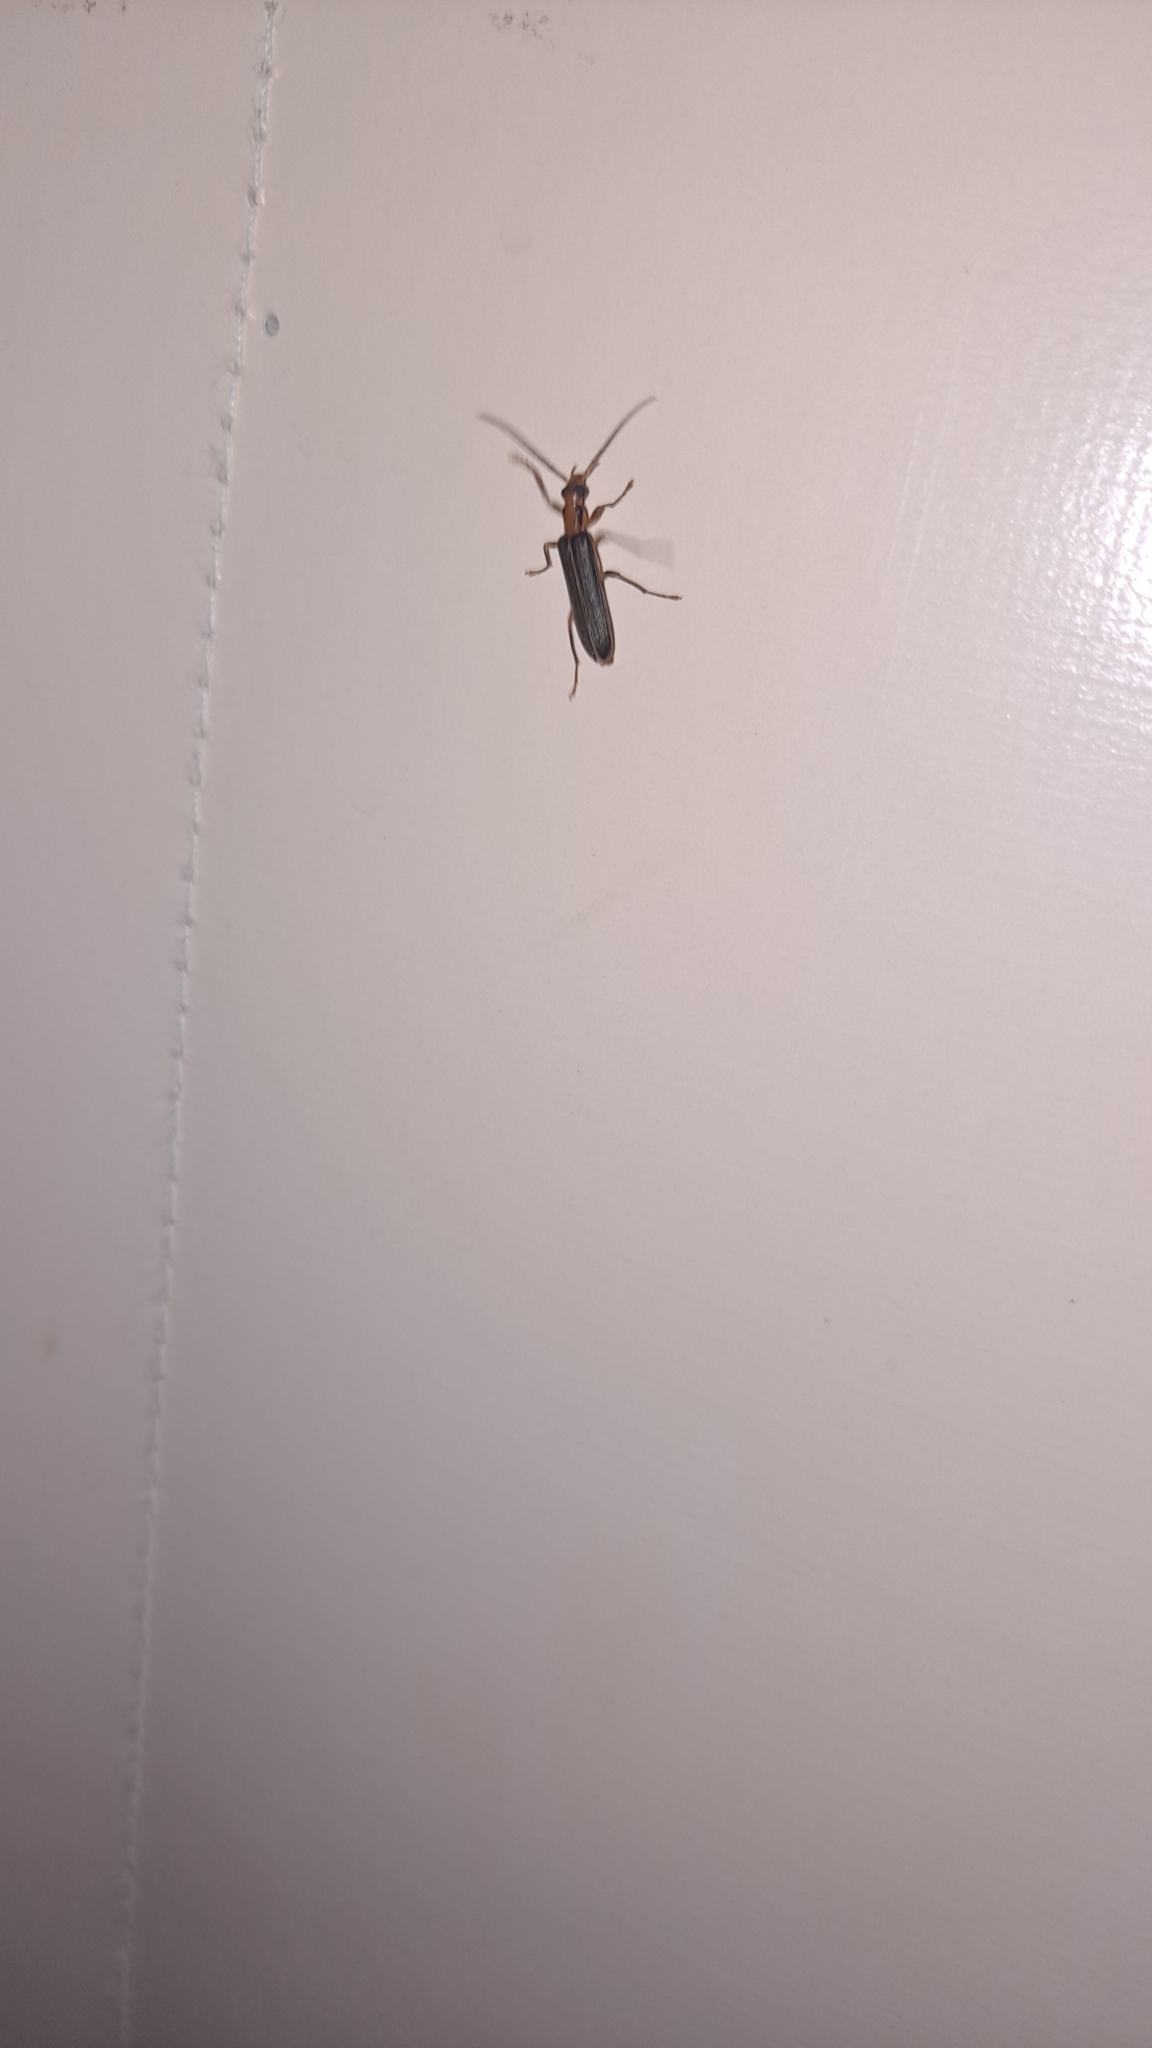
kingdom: Animalia
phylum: Arthropoda
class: Insecta
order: Coleoptera
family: Oedemeridae
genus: Nacerdes
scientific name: Nacerdes carniolica
